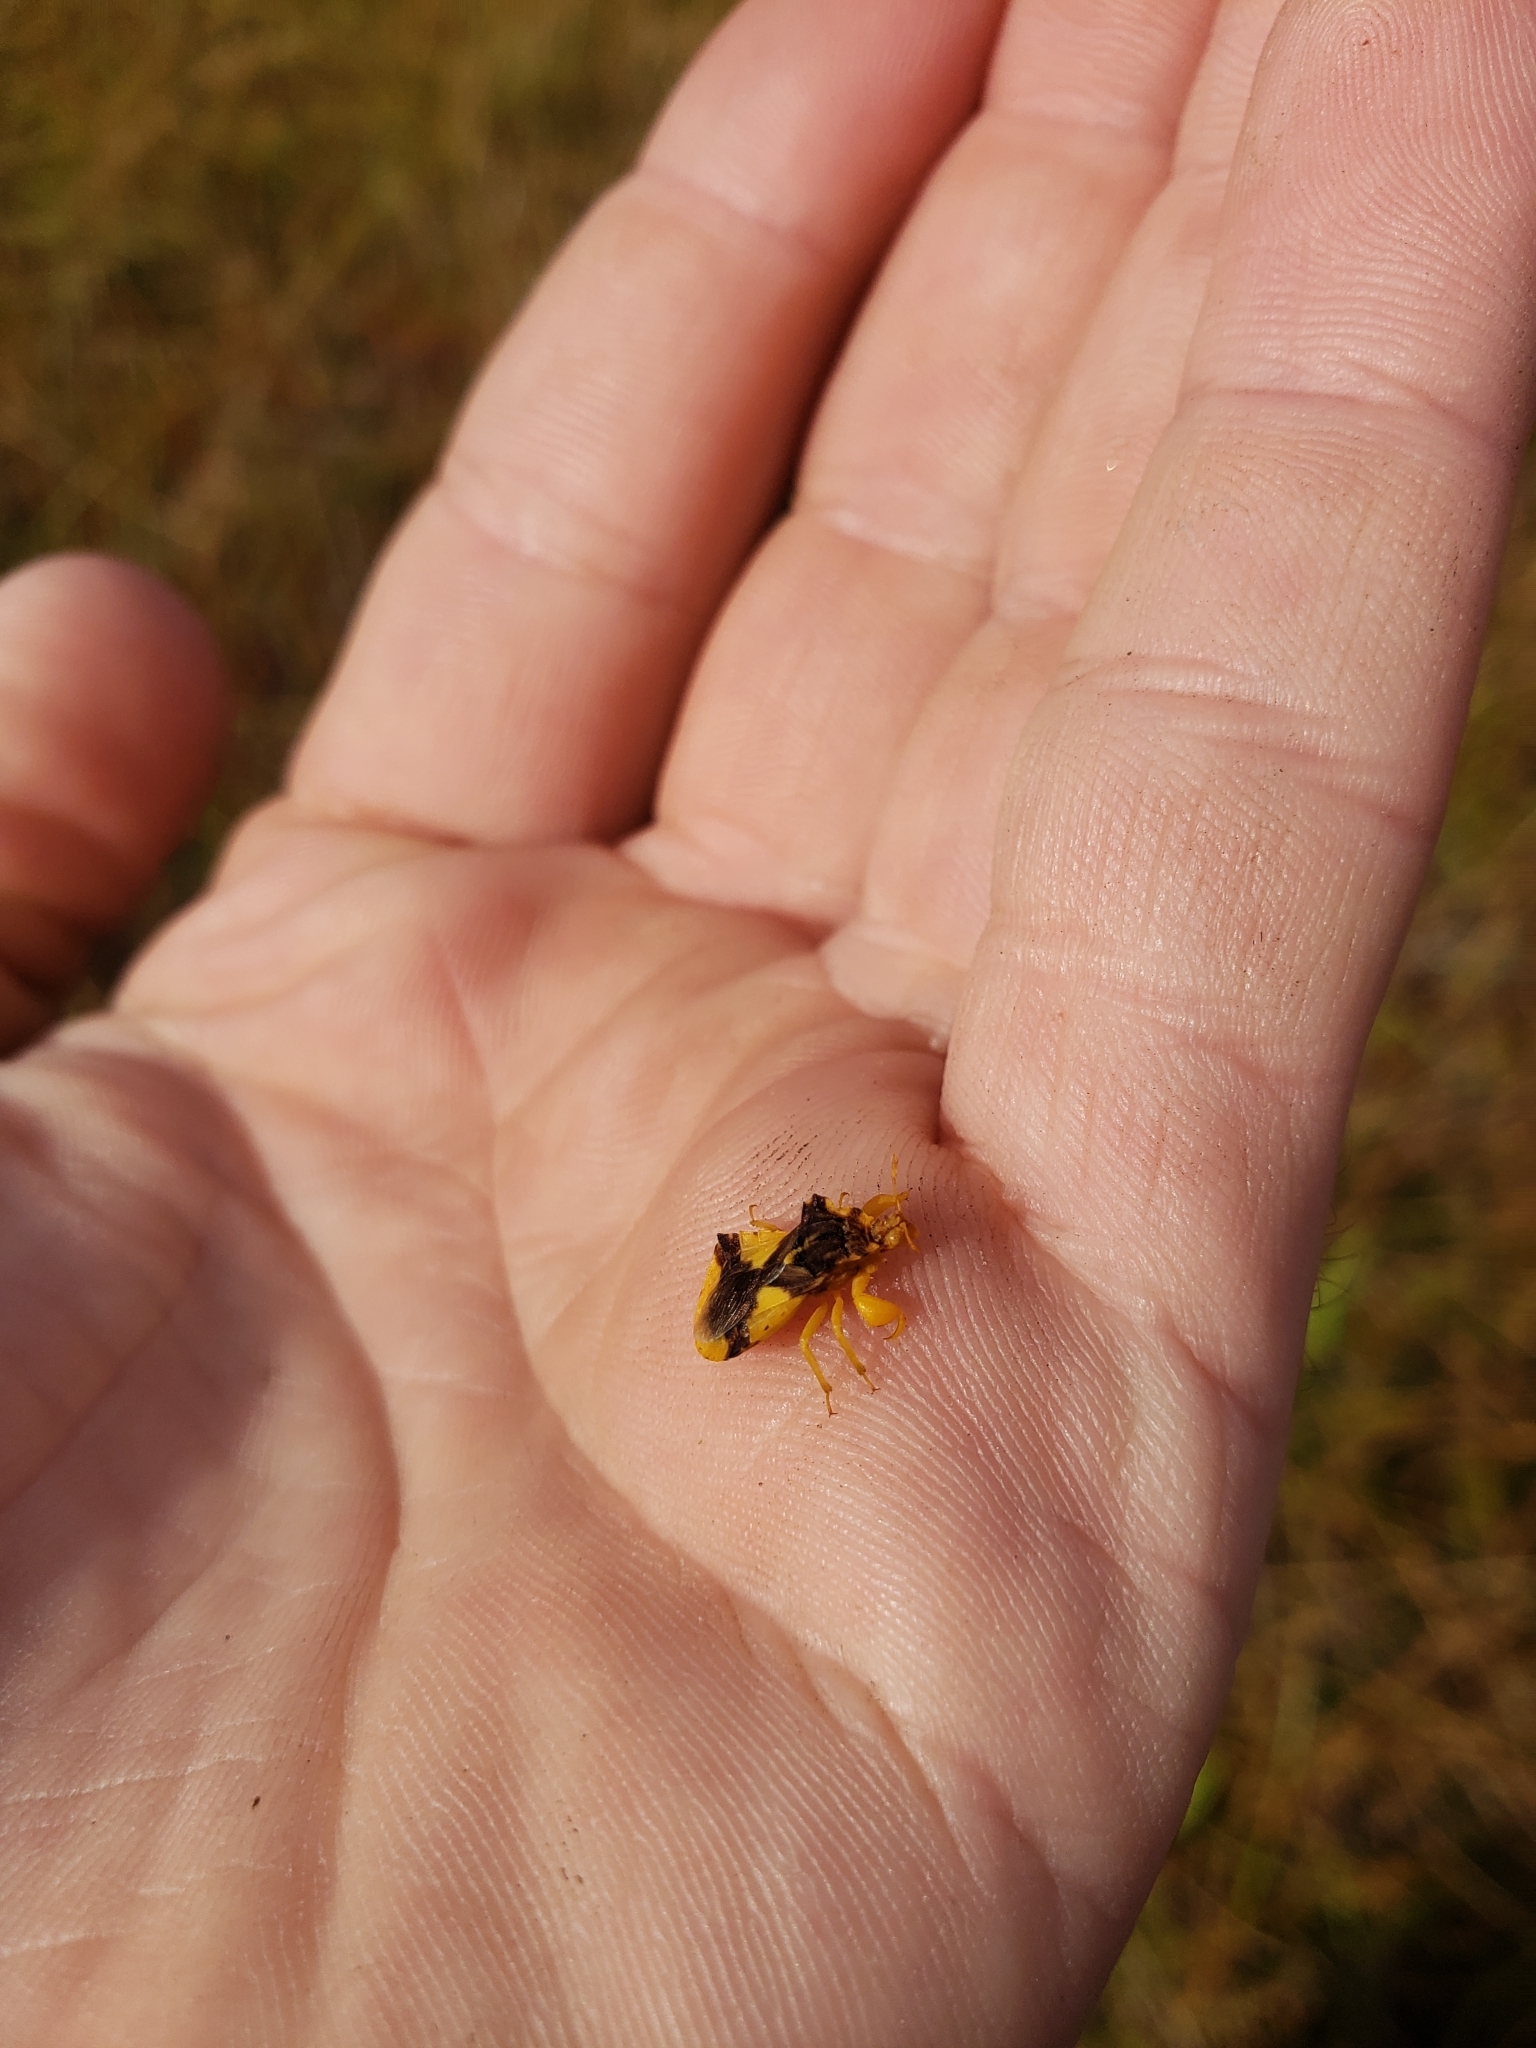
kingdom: Animalia
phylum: Arthropoda
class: Insecta
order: Hemiptera
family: Reduviidae
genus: Phymata
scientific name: Phymata americana
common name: Jagged ambush bug
